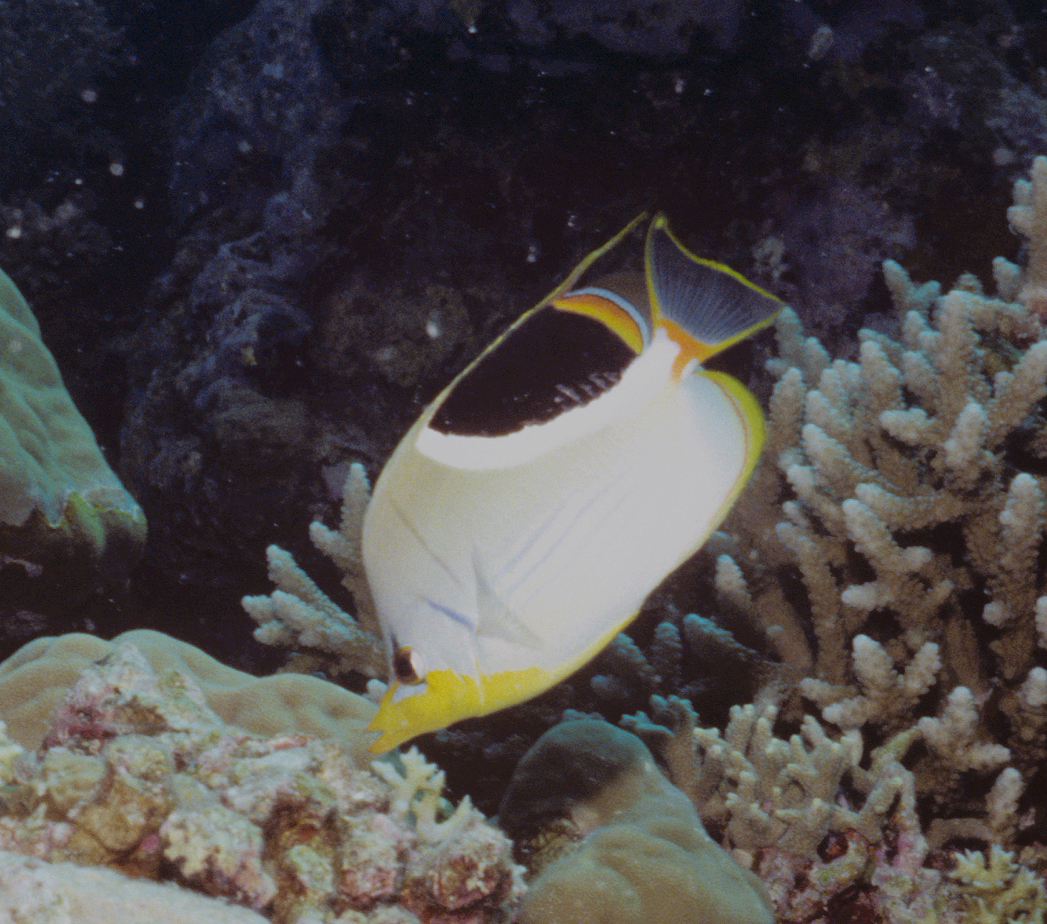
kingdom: Animalia
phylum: Chordata
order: Perciformes
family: Chaetodontidae
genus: Chaetodon
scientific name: Chaetodon ephippium
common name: Saddled butterflyfish
